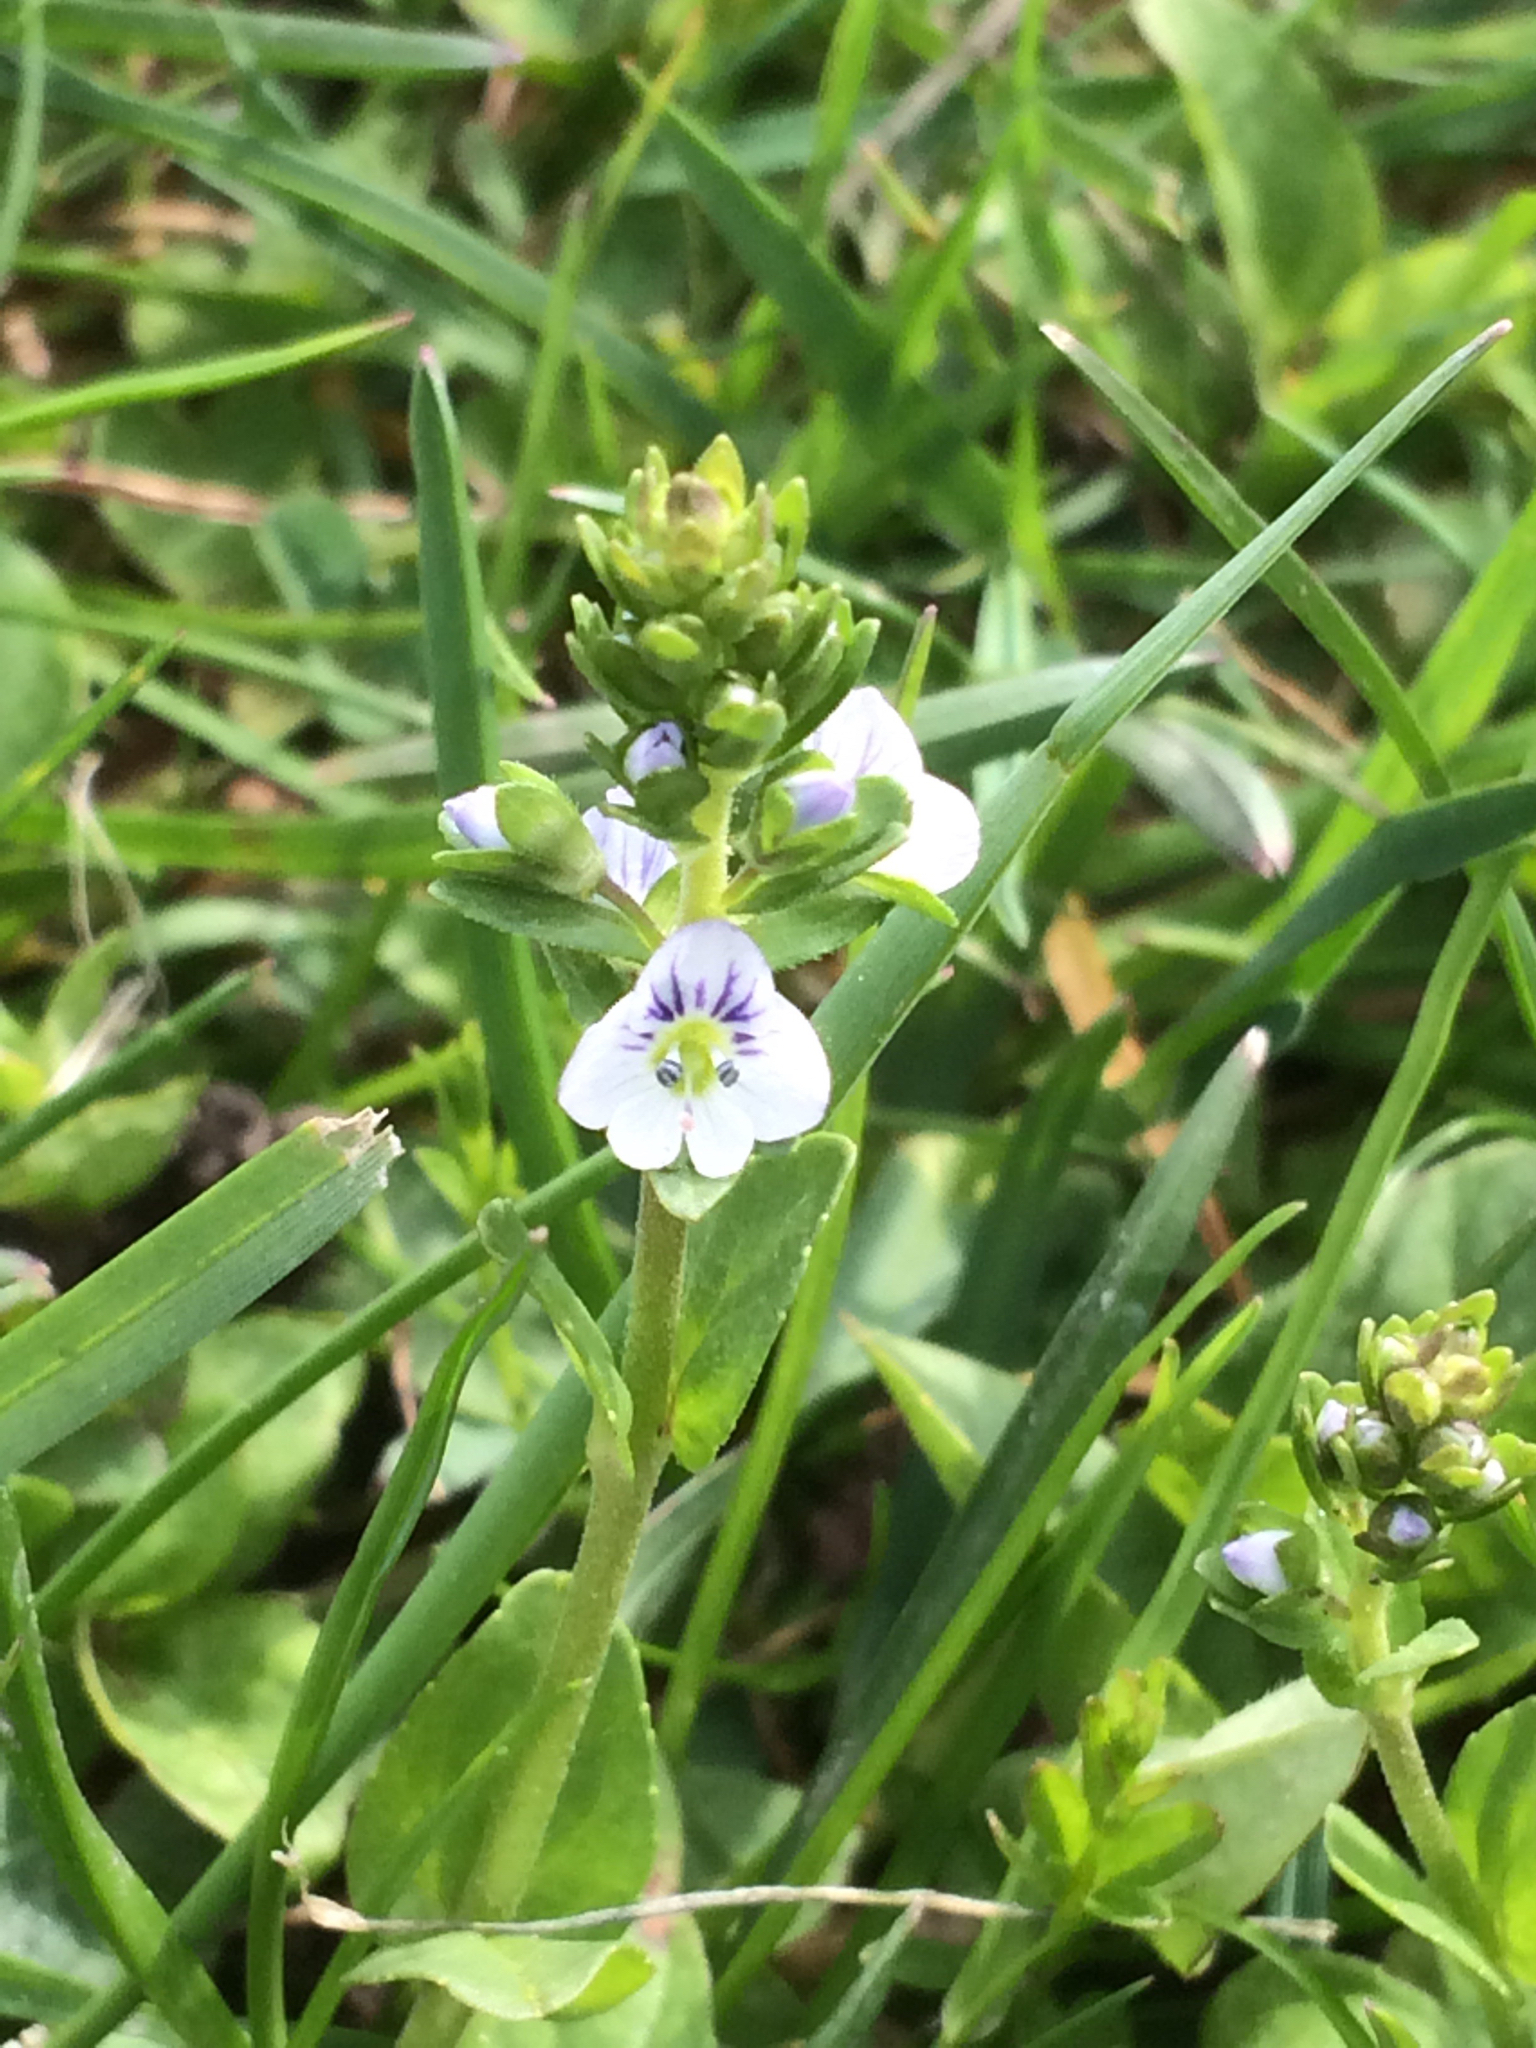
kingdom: Plantae
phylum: Tracheophyta
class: Magnoliopsida
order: Lamiales
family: Plantaginaceae
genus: Veronica
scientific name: Veronica serpyllifolia
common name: Thyme-leaved speedwell
